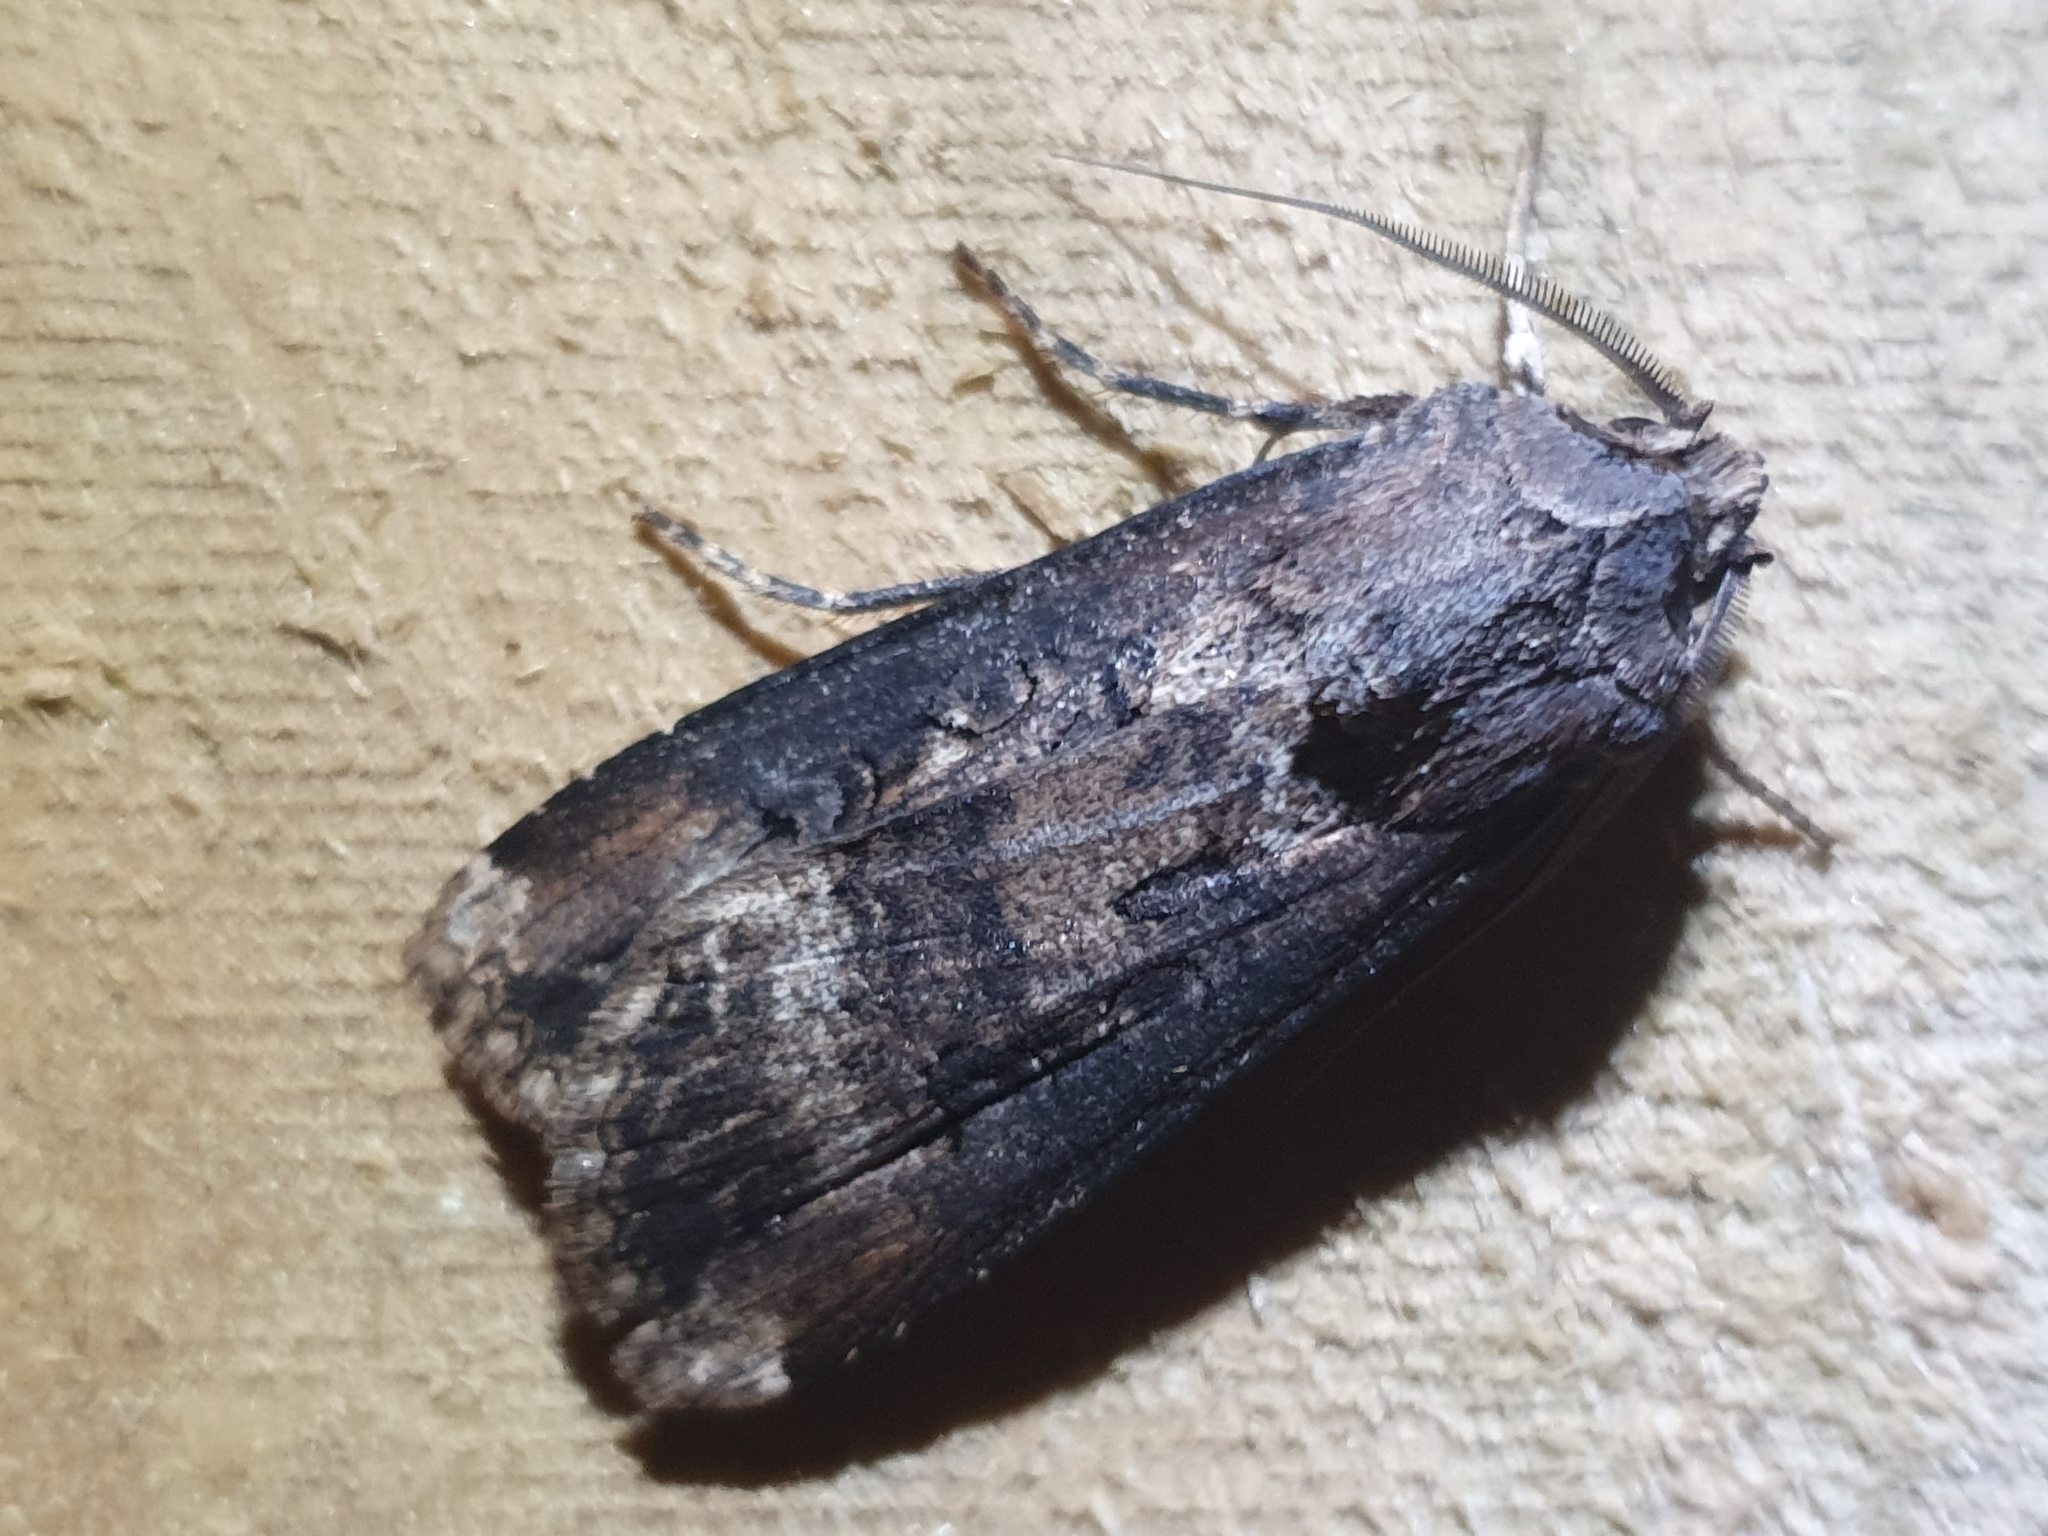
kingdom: Animalia
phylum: Arthropoda
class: Insecta
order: Lepidoptera
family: Noctuidae
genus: Agrotis
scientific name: Agrotis ipsilon
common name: Dark sword-grass
